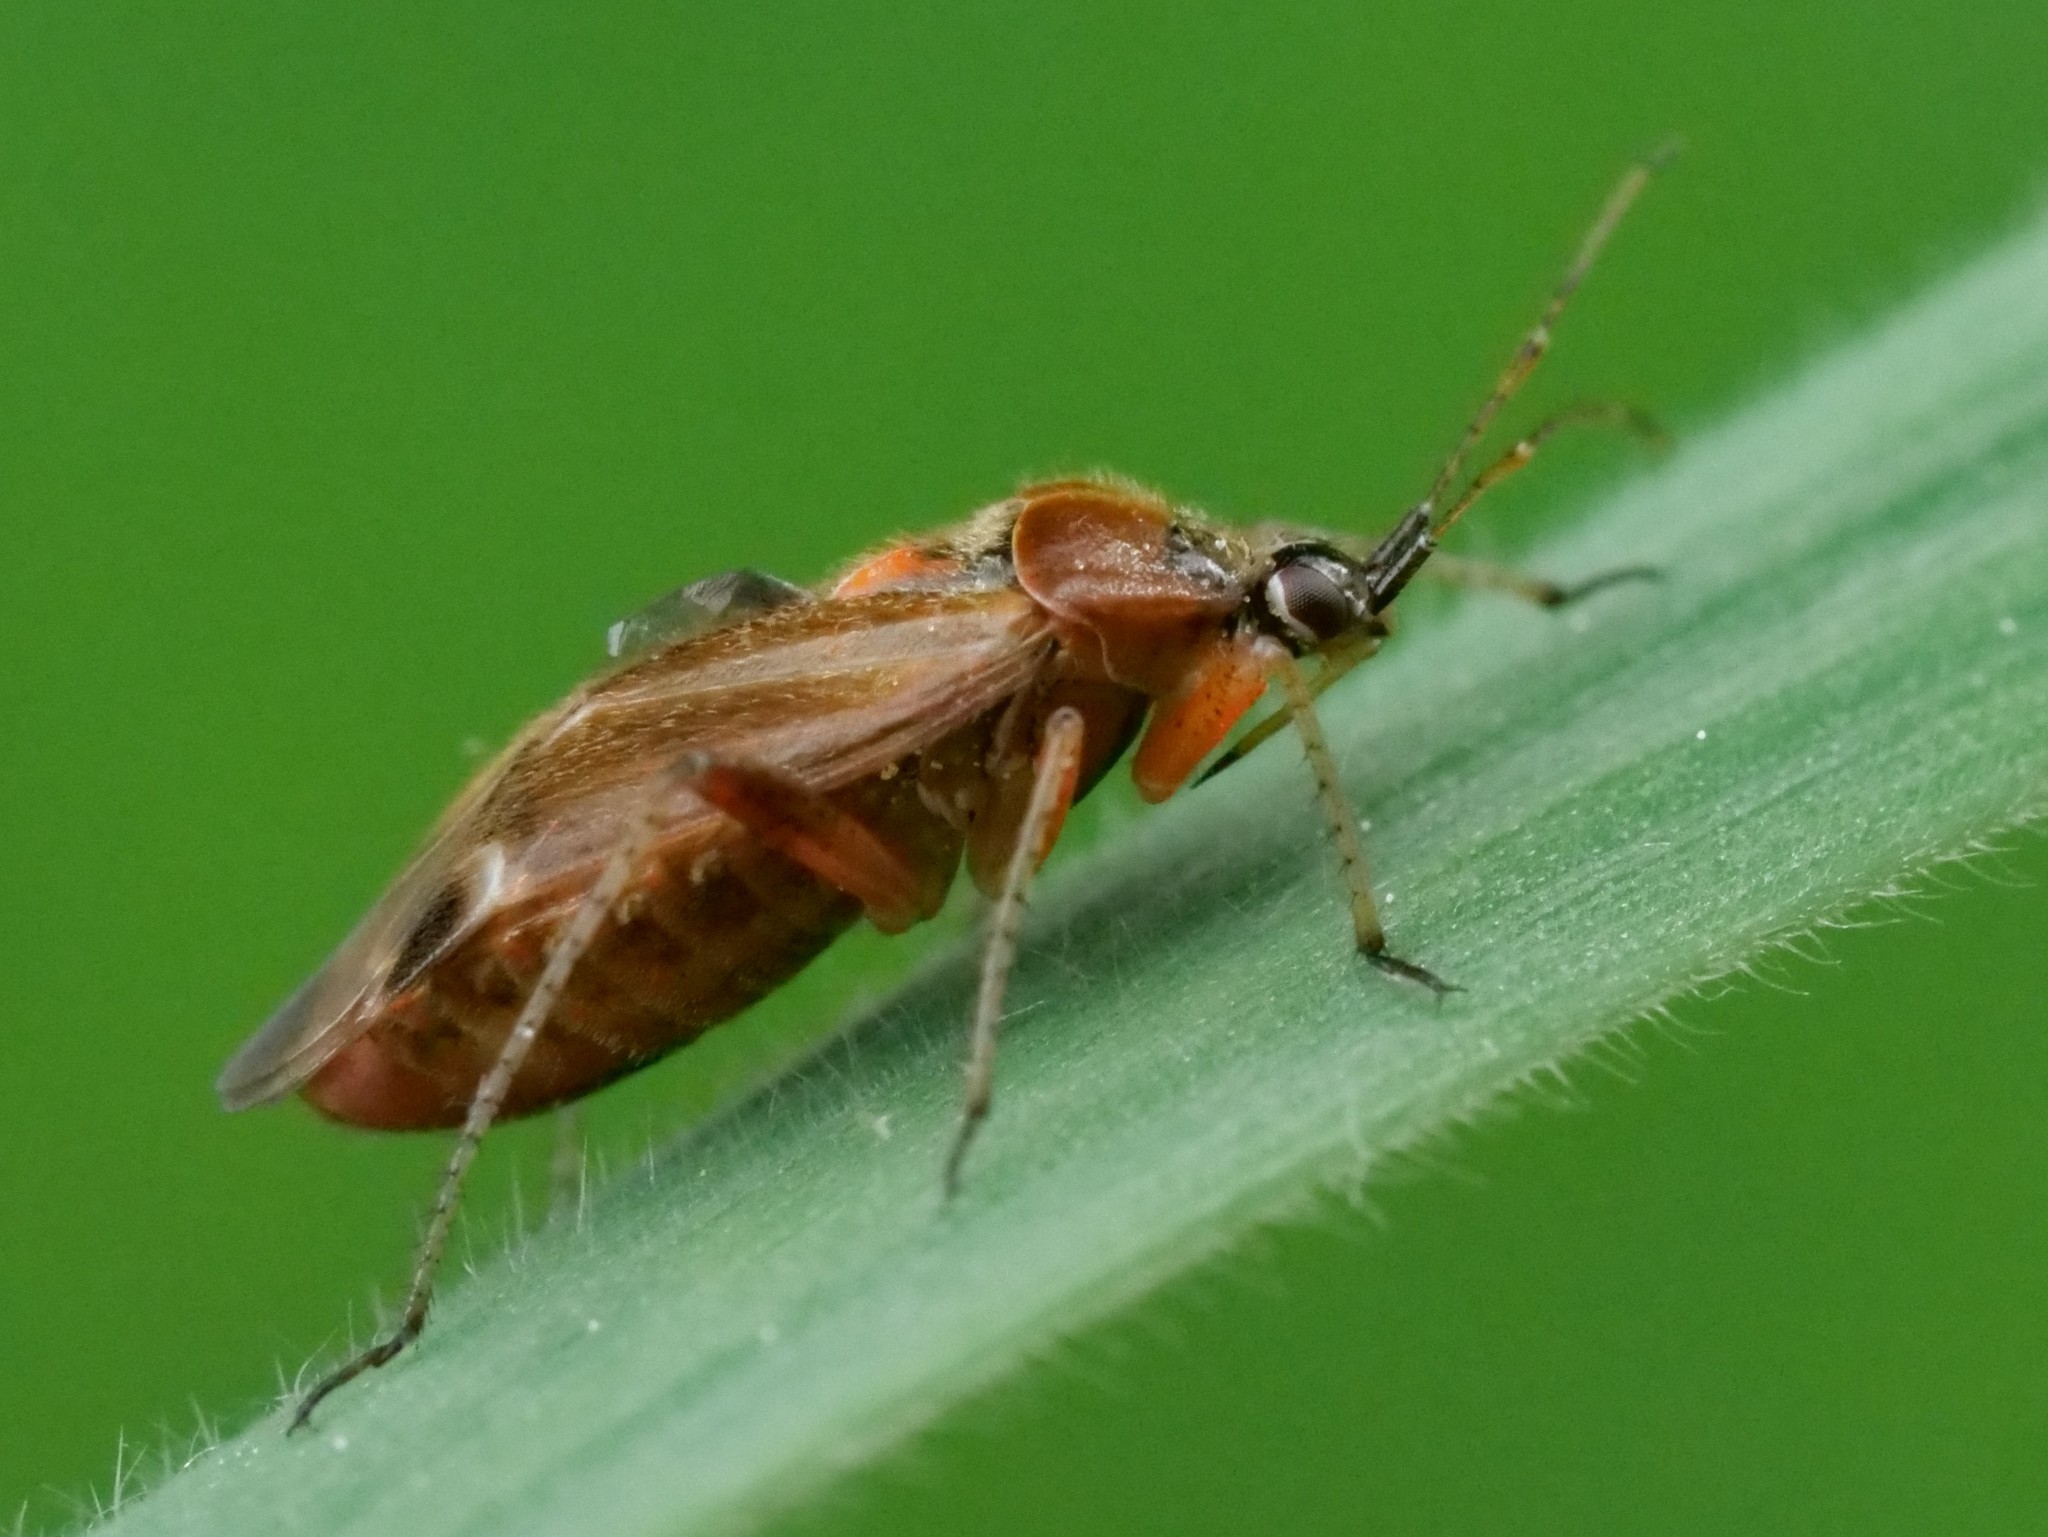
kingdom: Animalia
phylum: Arthropoda
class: Insecta
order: Hemiptera
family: Miridae
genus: Harpocera
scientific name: Harpocera thoracica
